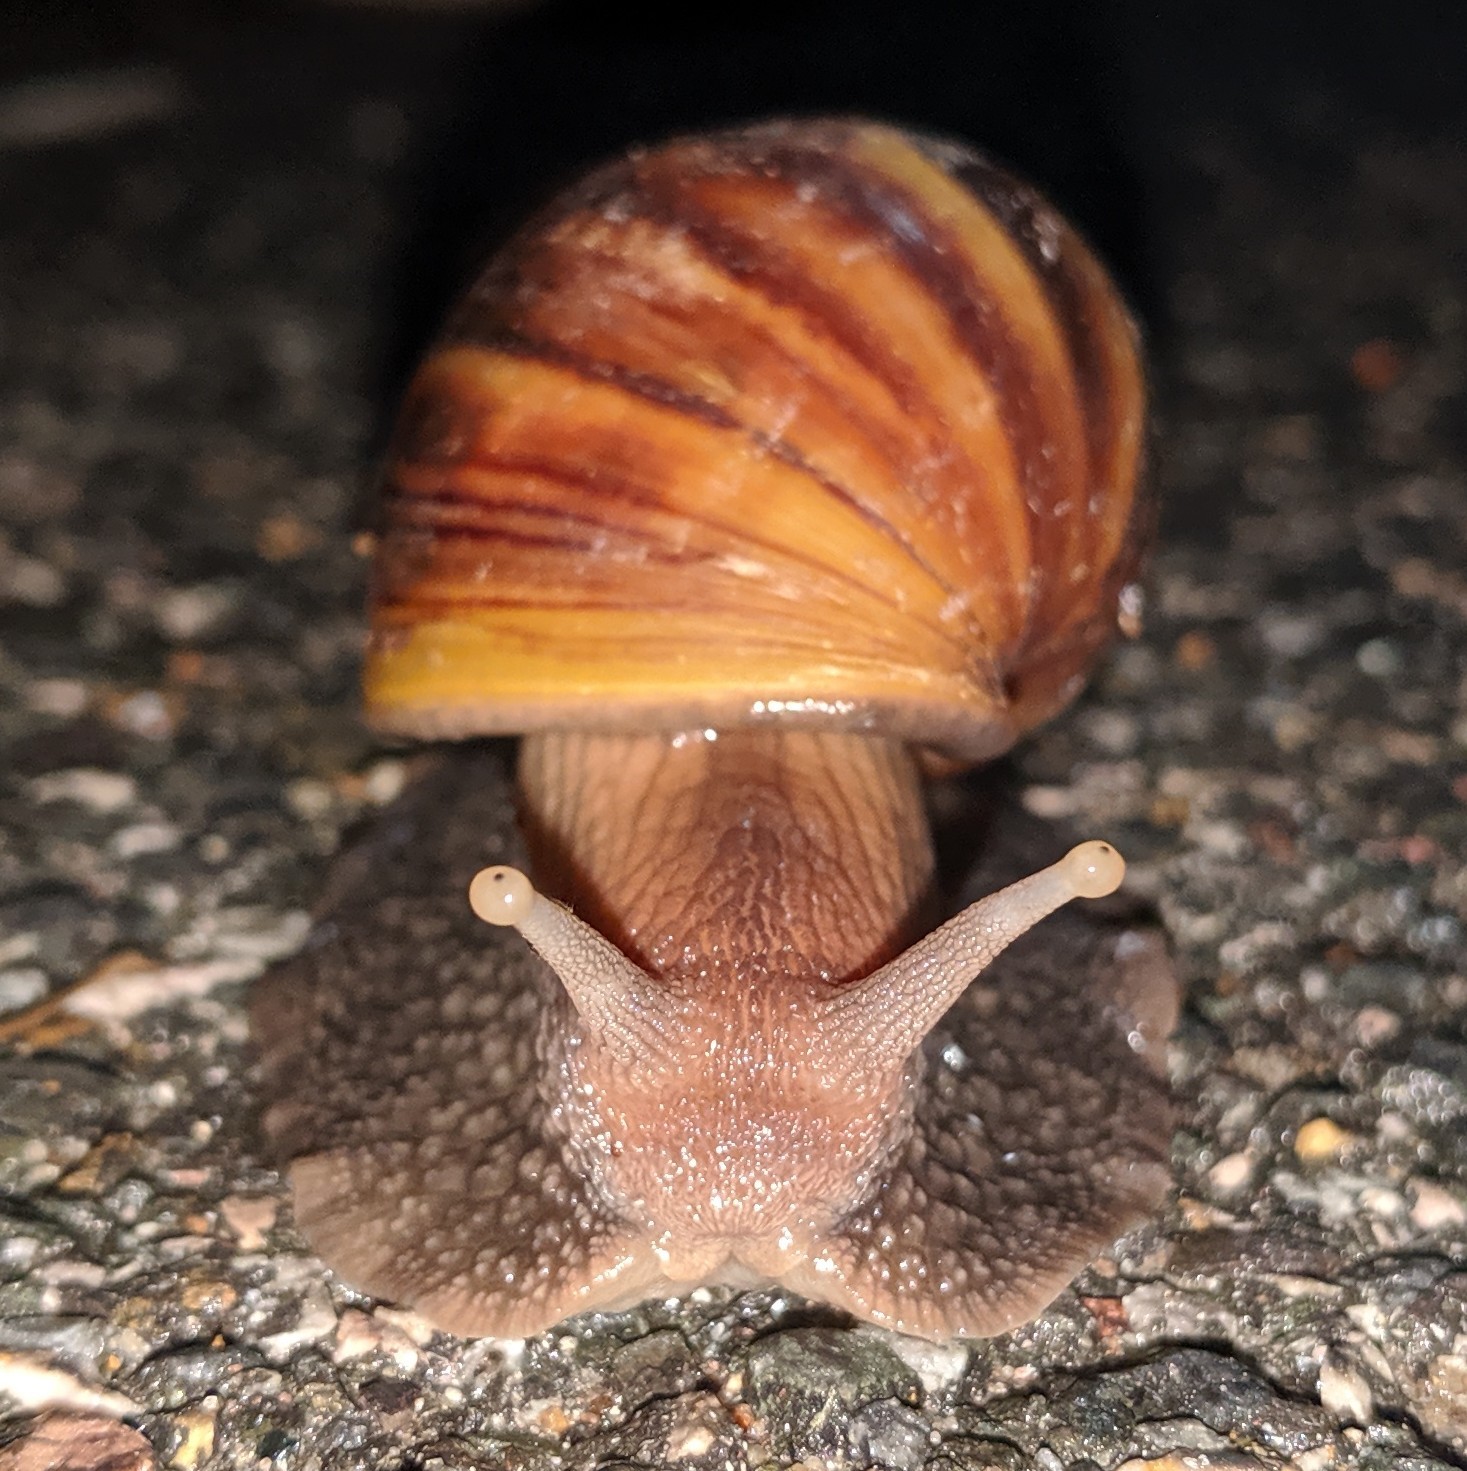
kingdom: Animalia
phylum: Mollusca
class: Gastropoda
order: Stylommatophora
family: Achatinidae
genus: Lissachatina
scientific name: Lissachatina fulica
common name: Giant african snail
